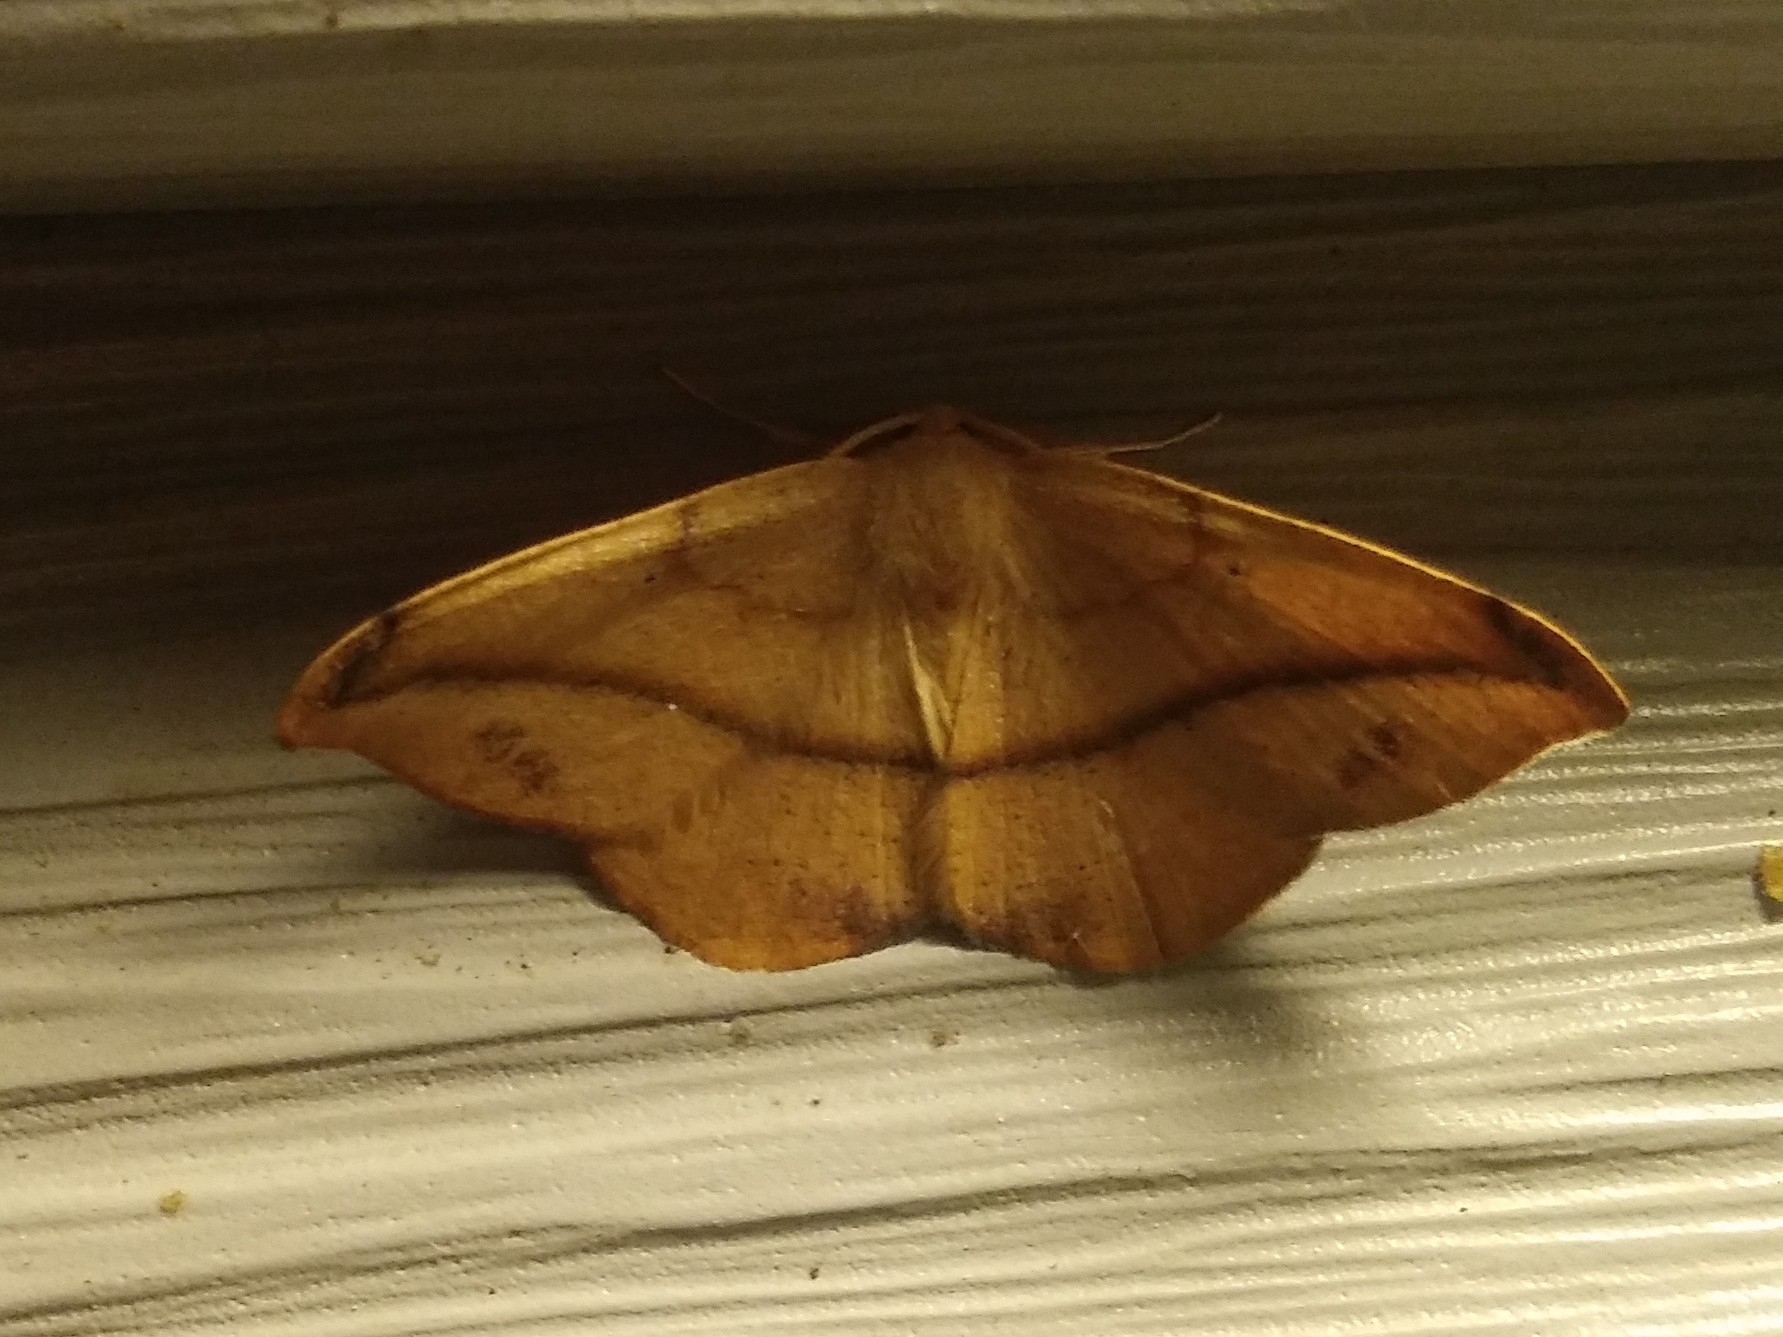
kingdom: Animalia
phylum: Arthropoda
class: Insecta
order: Lepidoptera
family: Geometridae
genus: Patalene
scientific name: Patalene olyzonaria
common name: Juniper geometer moth
